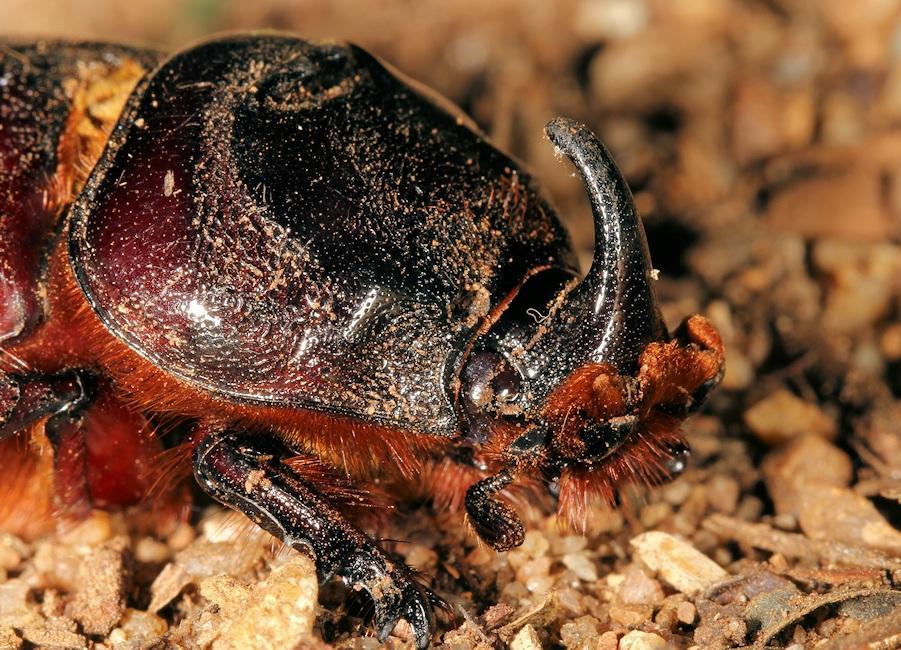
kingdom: Animalia
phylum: Arthropoda
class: Insecta
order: Coleoptera
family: Scarabaeidae
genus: Oryctes
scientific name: Oryctes monoceros
